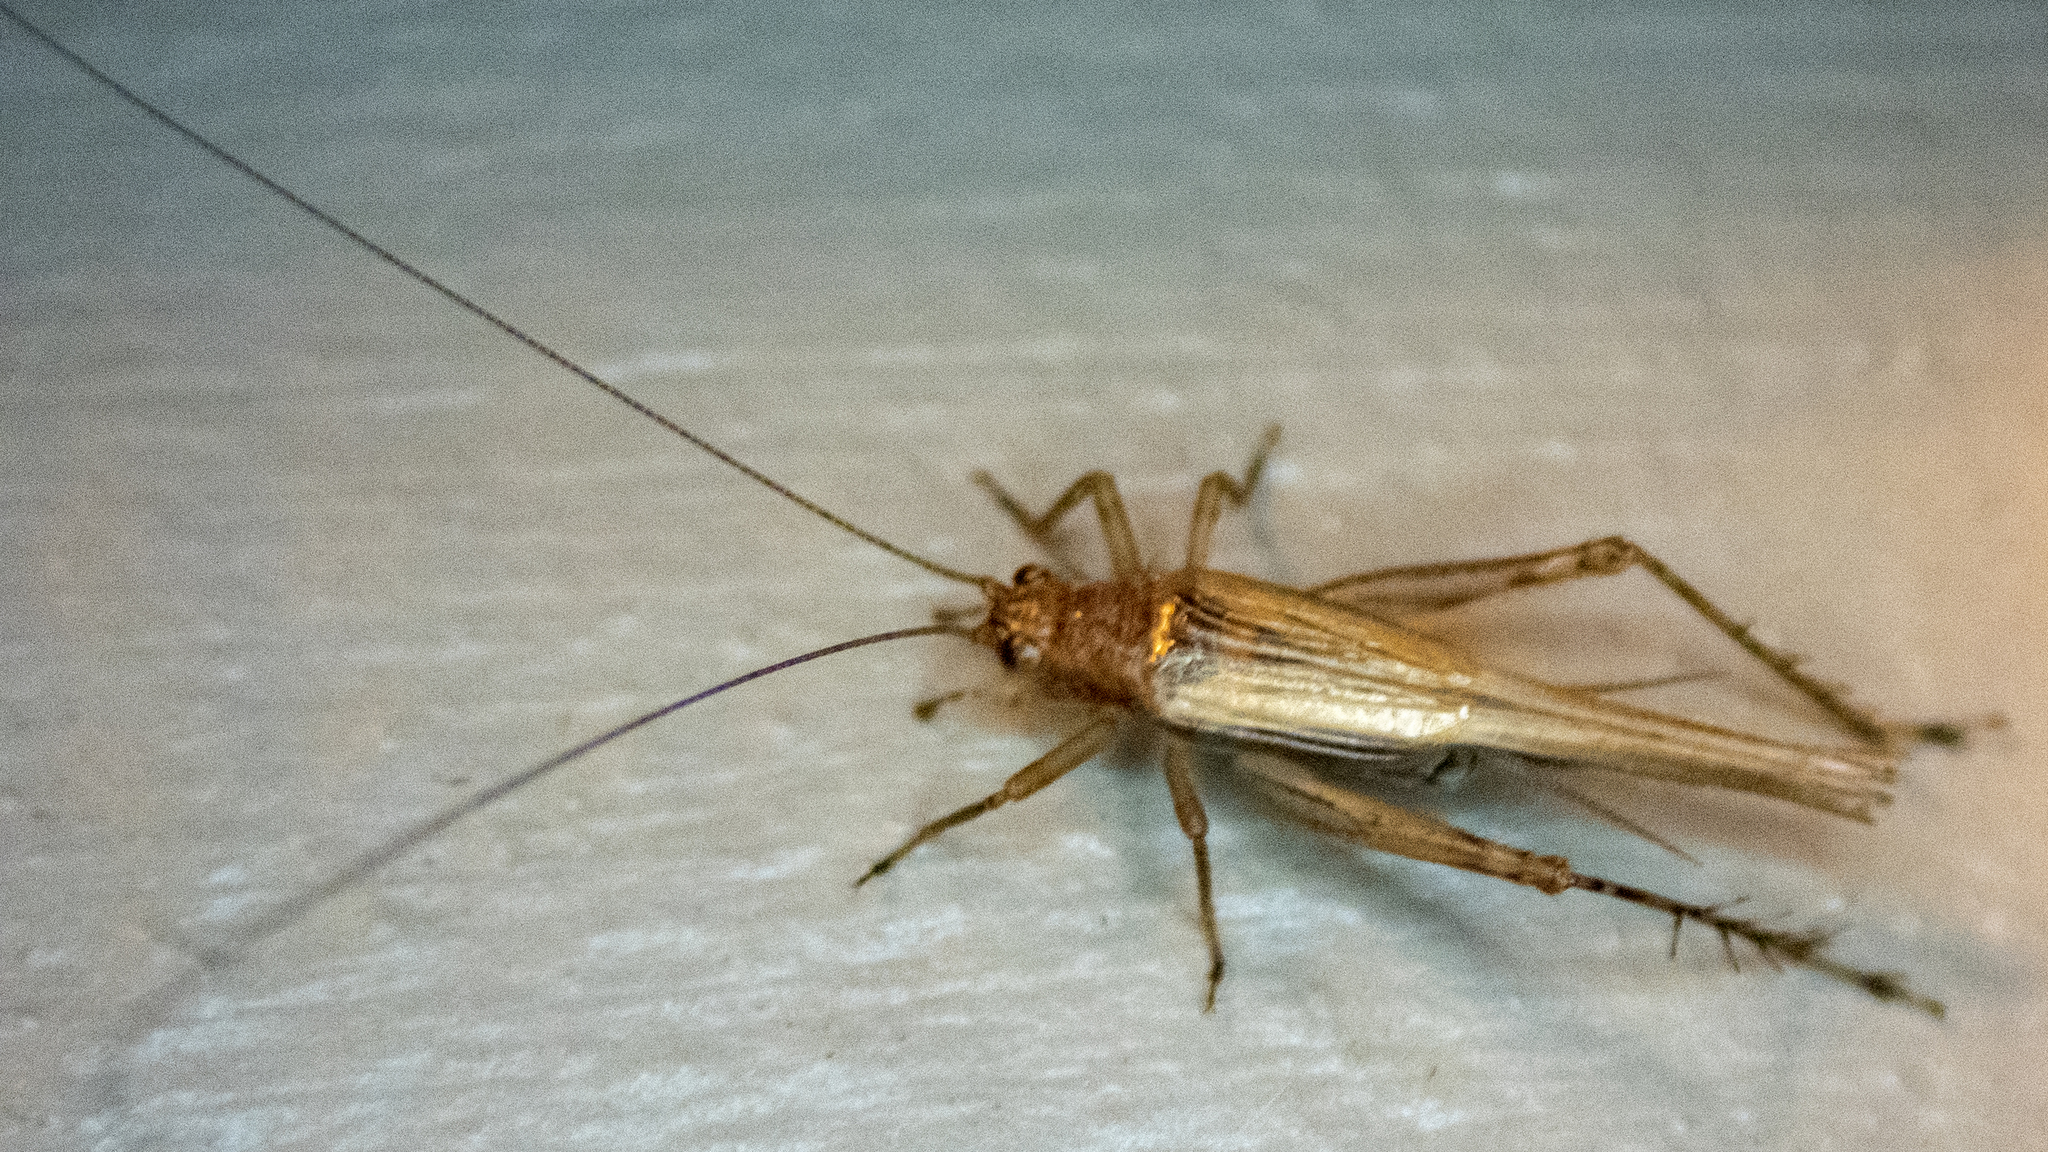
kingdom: Animalia
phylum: Arthropoda
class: Insecta
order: Orthoptera
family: Trigonidiidae
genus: Anaxipha
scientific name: Anaxipha exigua
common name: Say's bush cricket
